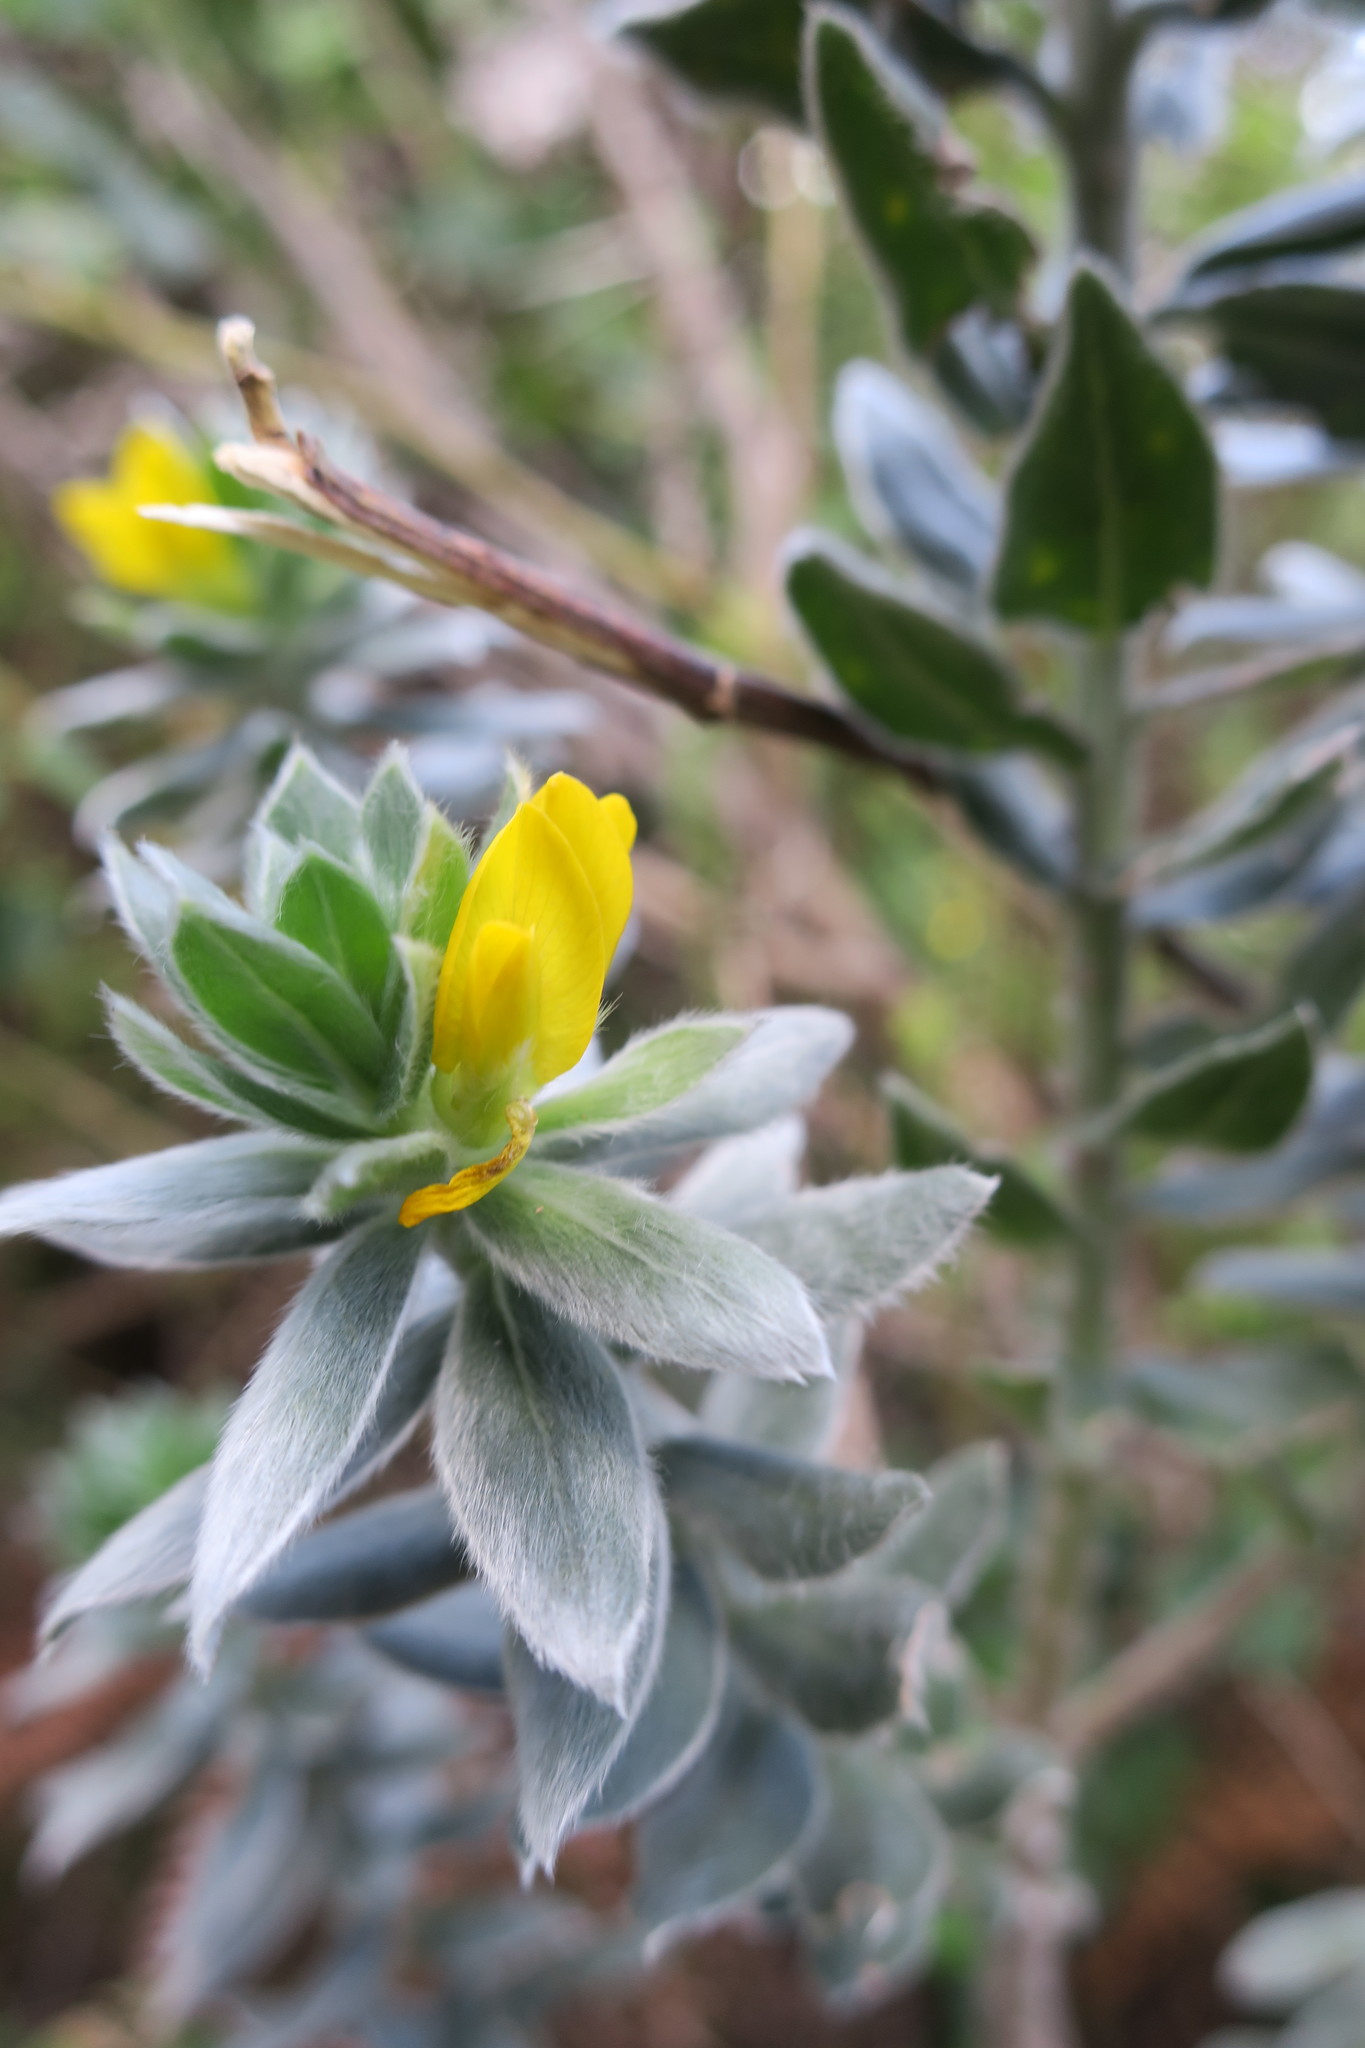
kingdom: Plantae
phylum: Tracheophyta
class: Magnoliopsida
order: Fabales
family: Fabaceae
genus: Xiphotheca
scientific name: Xiphotheca fruticosa
